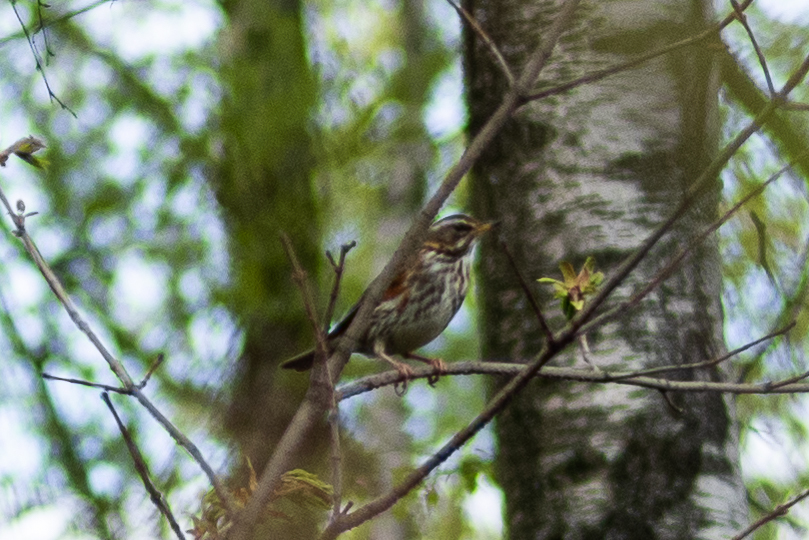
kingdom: Animalia
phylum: Chordata
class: Aves
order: Passeriformes
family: Turdidae
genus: Turdus
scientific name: Turdus iliacus
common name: Redwing
